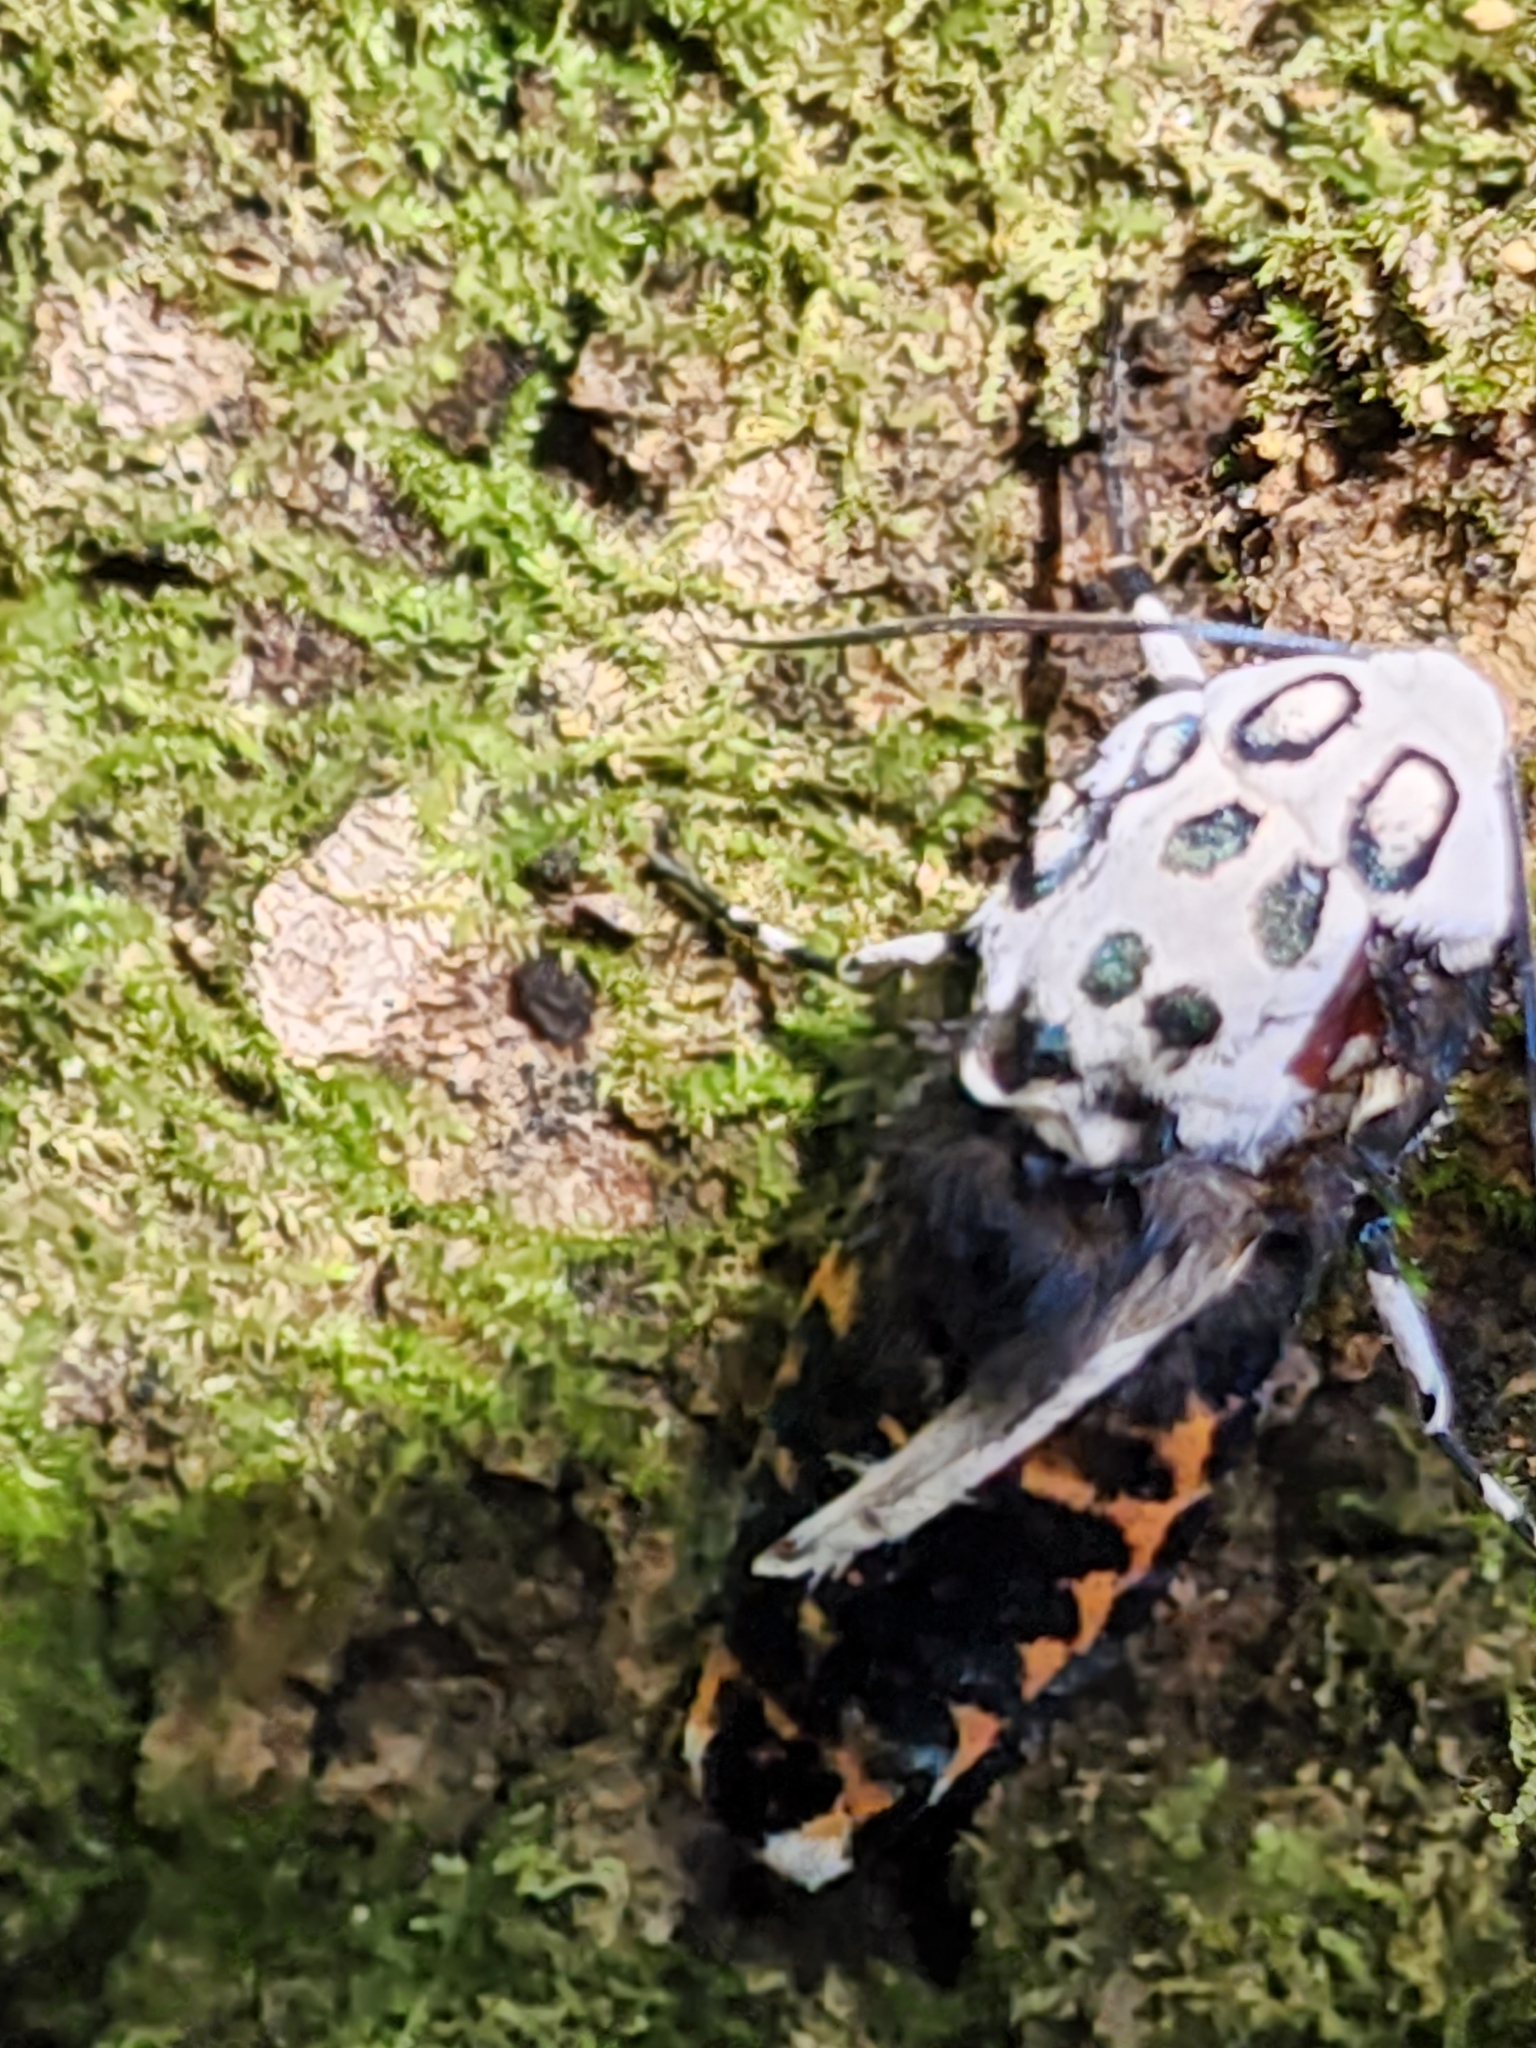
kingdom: Animalia
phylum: Arthropoda
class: Insecta
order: Lepidoptera
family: Erebidae
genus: Hypercompe
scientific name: Hypercompe scribonia
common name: Giant leopard moth
